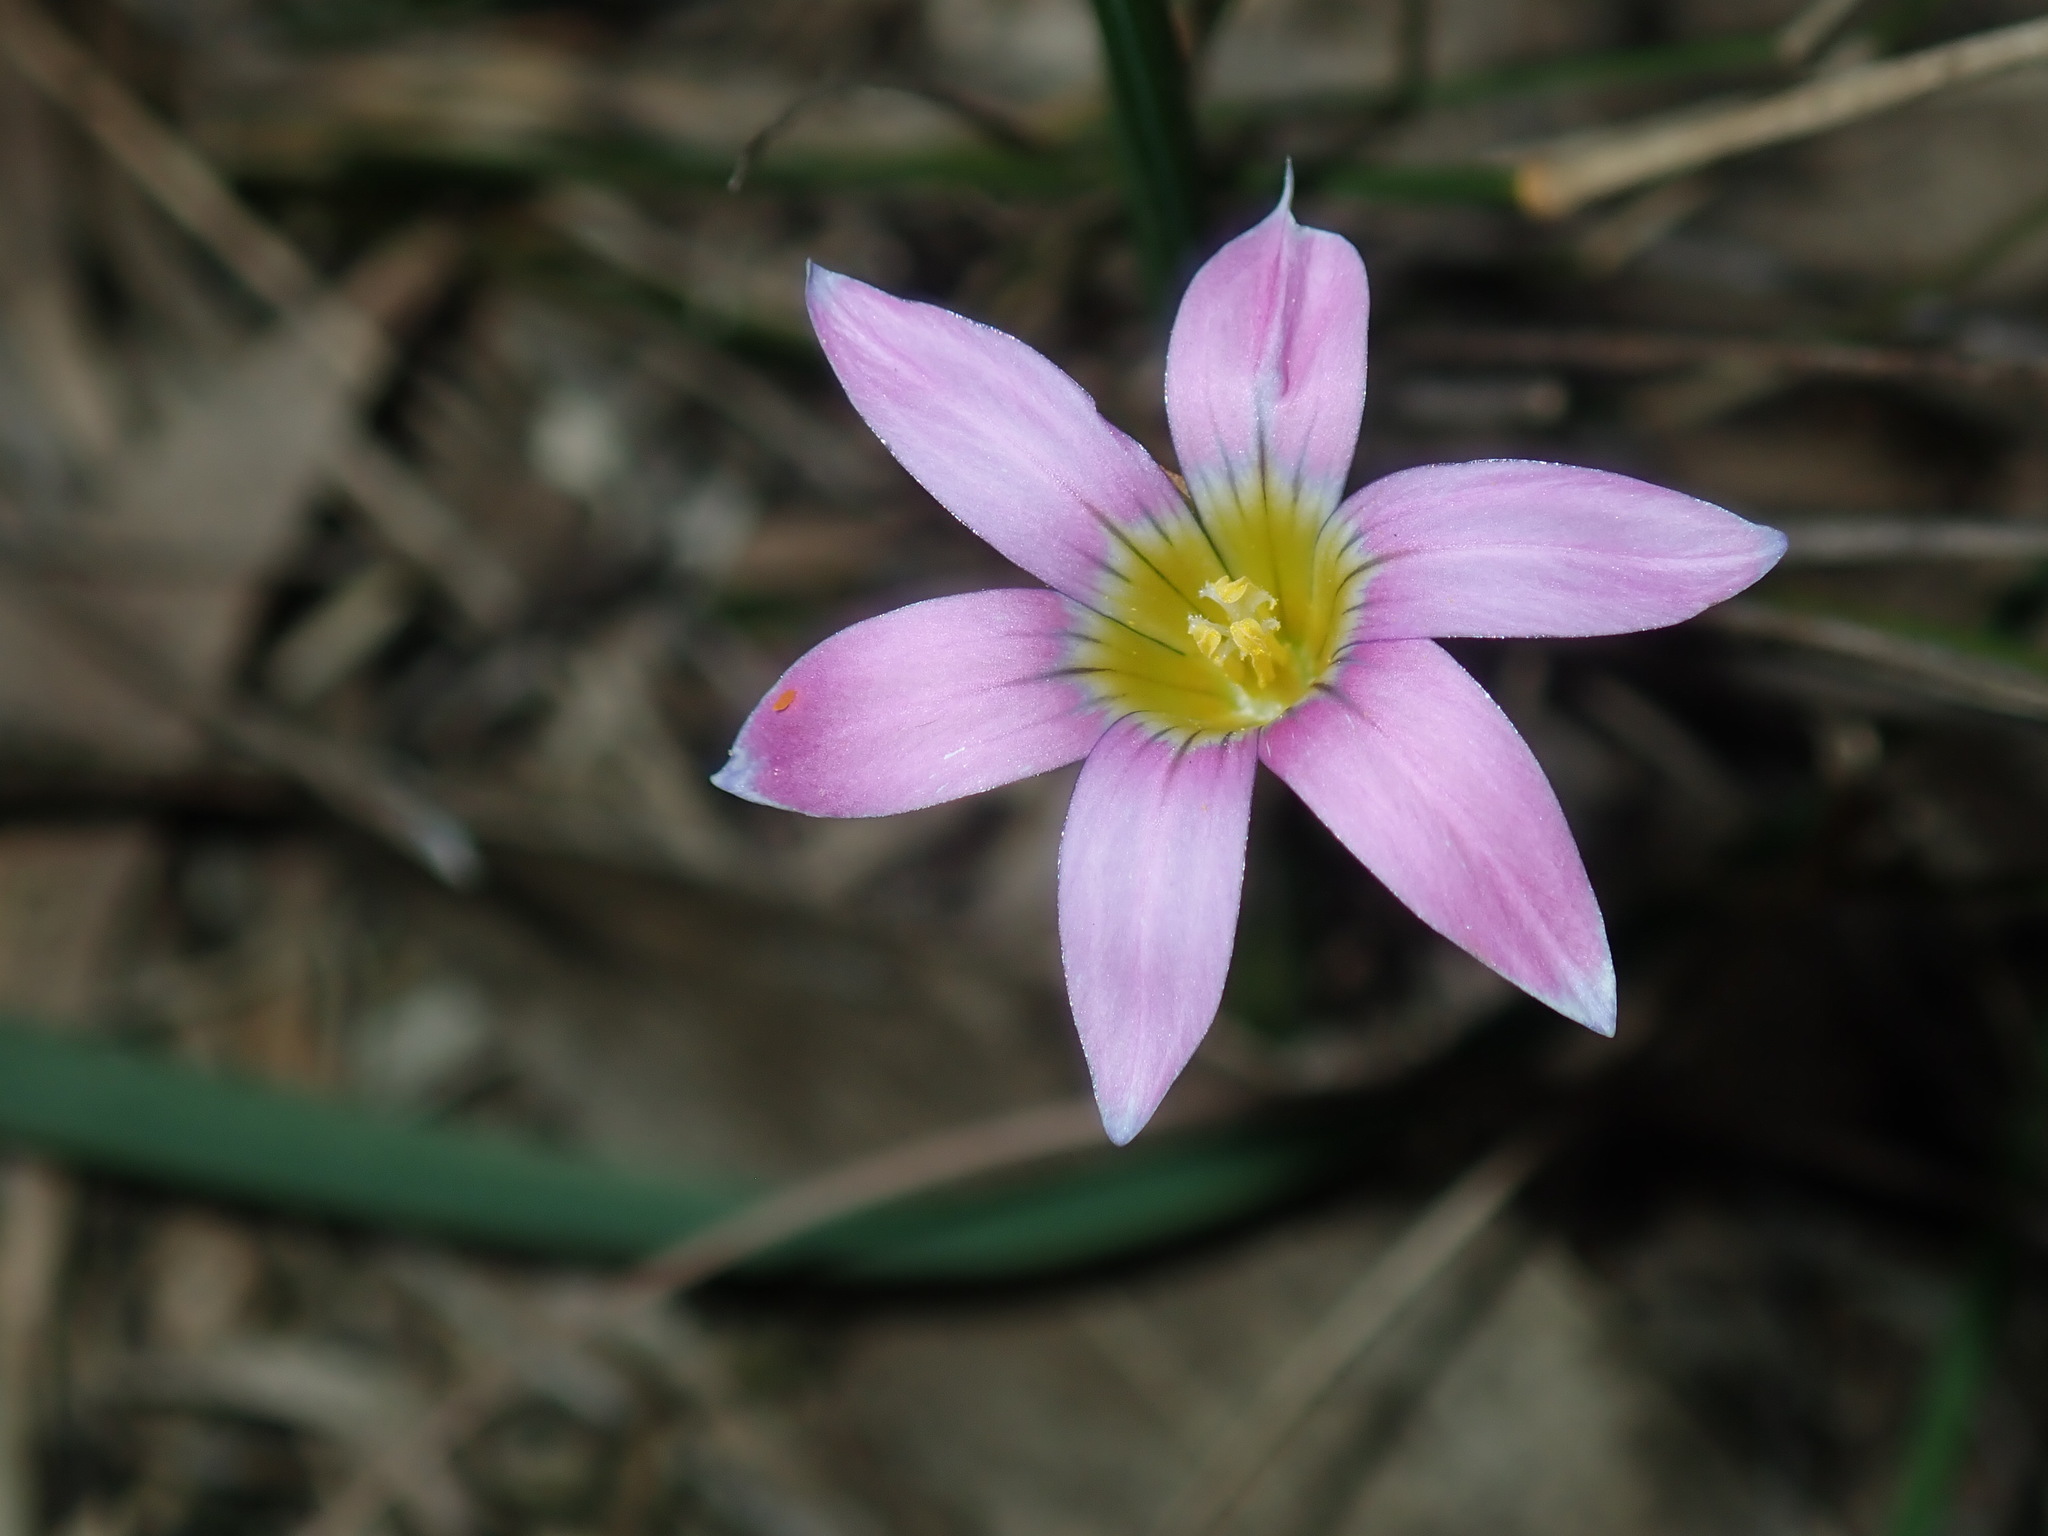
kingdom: Plantae
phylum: Tracheophyta
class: Liliopsida
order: Asparagales
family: Iridaceae
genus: Romulea
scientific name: Romulea rosea
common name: Oniongrass
